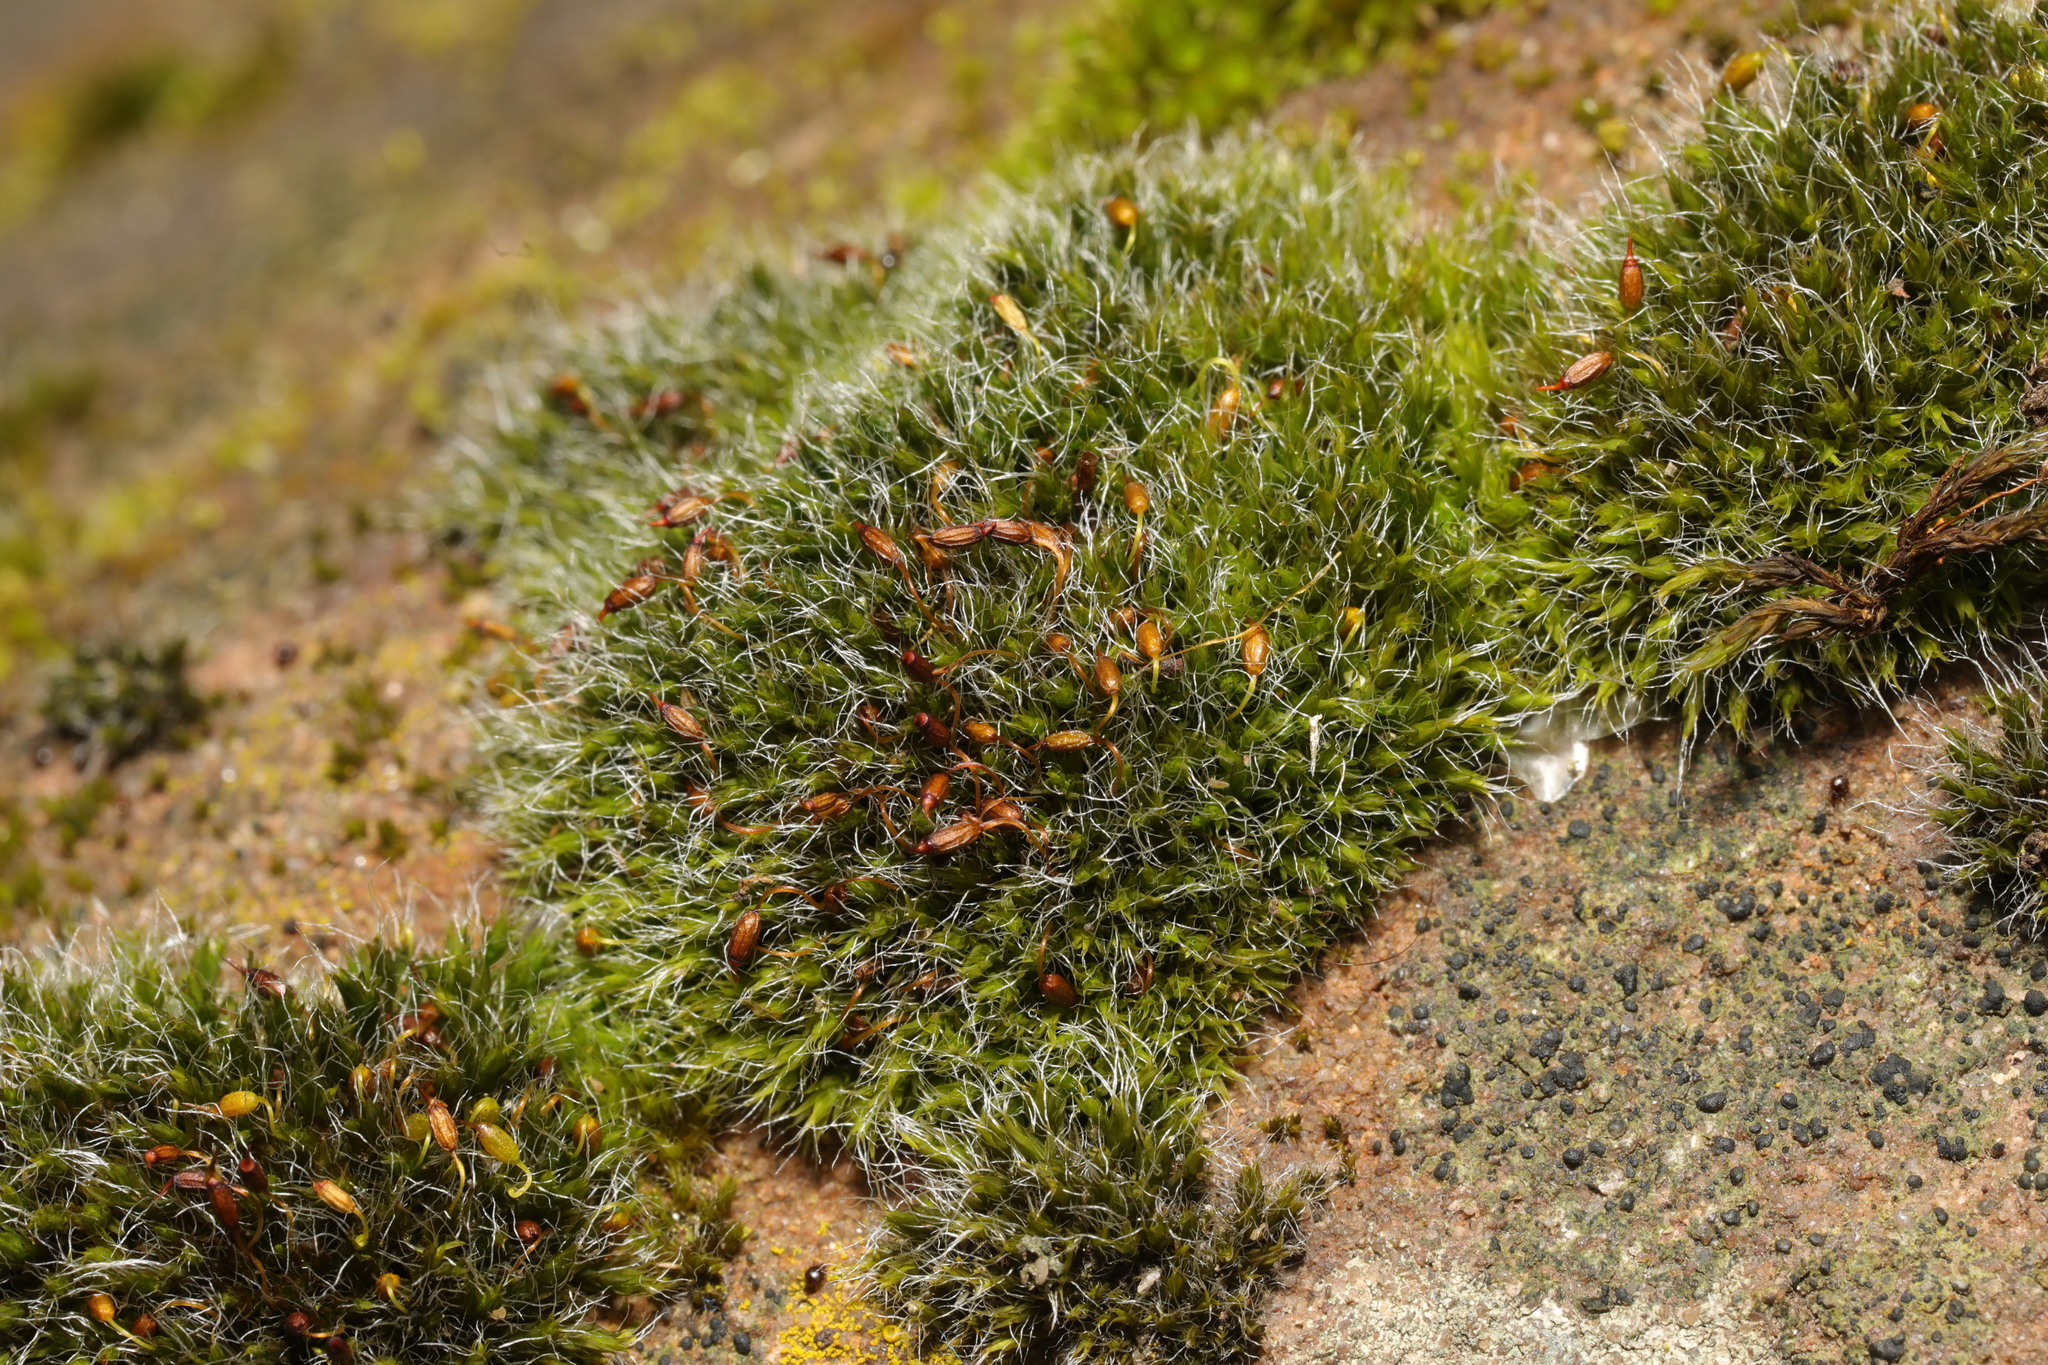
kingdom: Plantae
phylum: Bryophyta
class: Bryopsida
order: Grimmiales
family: Grimmiaceae
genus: Grimmia
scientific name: Grimmia pulvinata
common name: Grey-cushioned grimmia
